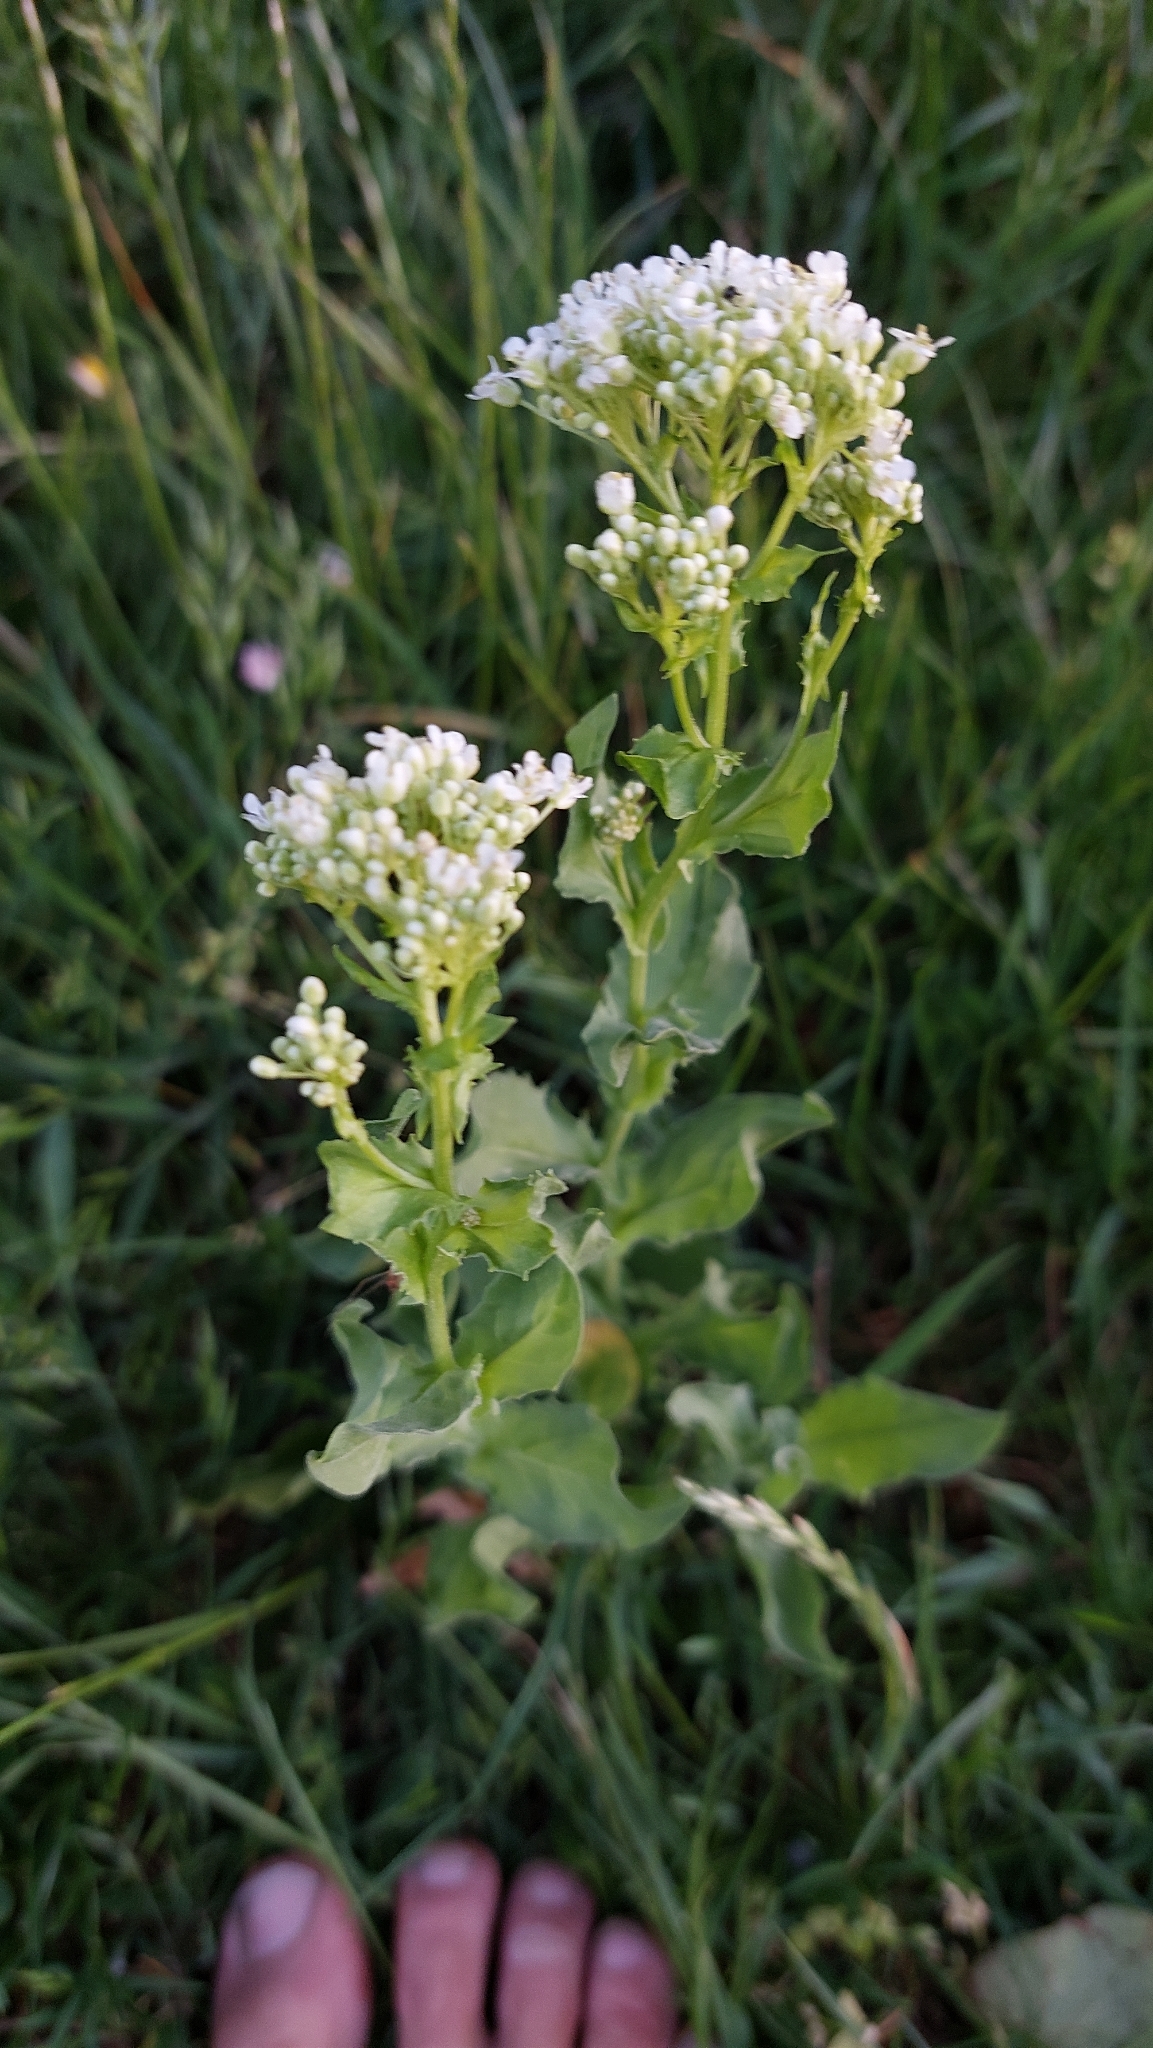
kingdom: Plantae
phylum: Tracheophyta
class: Magnoliopsida
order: Brassicales
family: Brassicaceae
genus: Lepidium
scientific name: Lepidium draba
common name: Hoary cress
